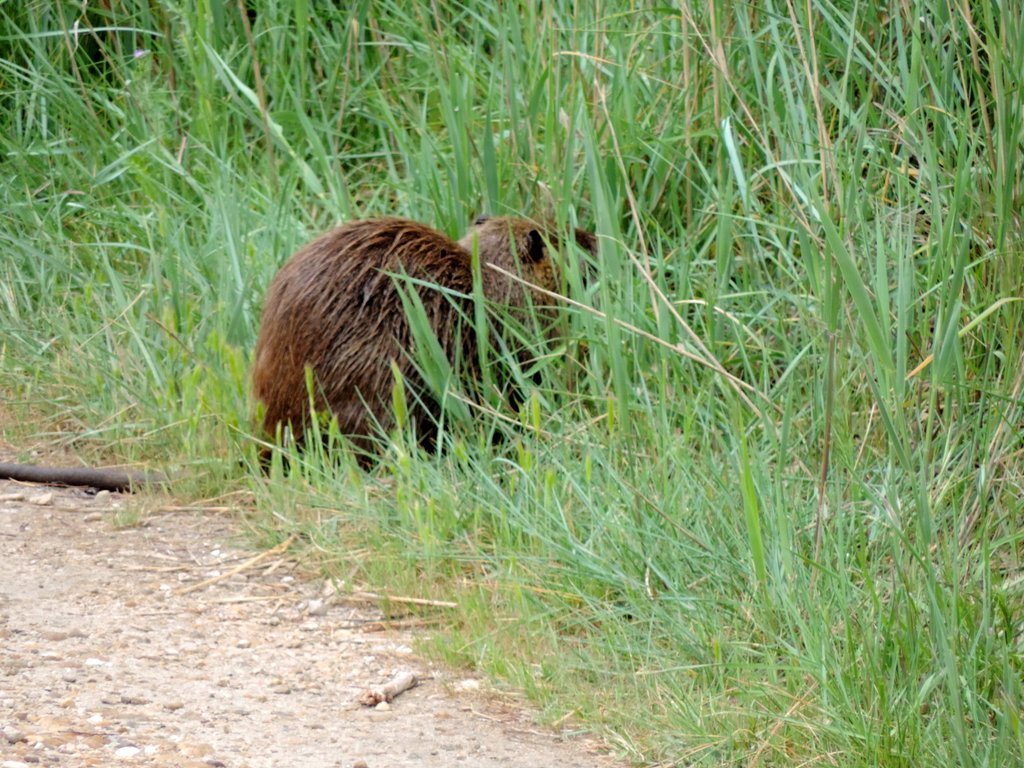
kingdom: Animalia
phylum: Chordata
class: Mammalia
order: Rodentia
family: Myocastoridae
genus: Myocastor
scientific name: Myocastor coypus
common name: Coypu
